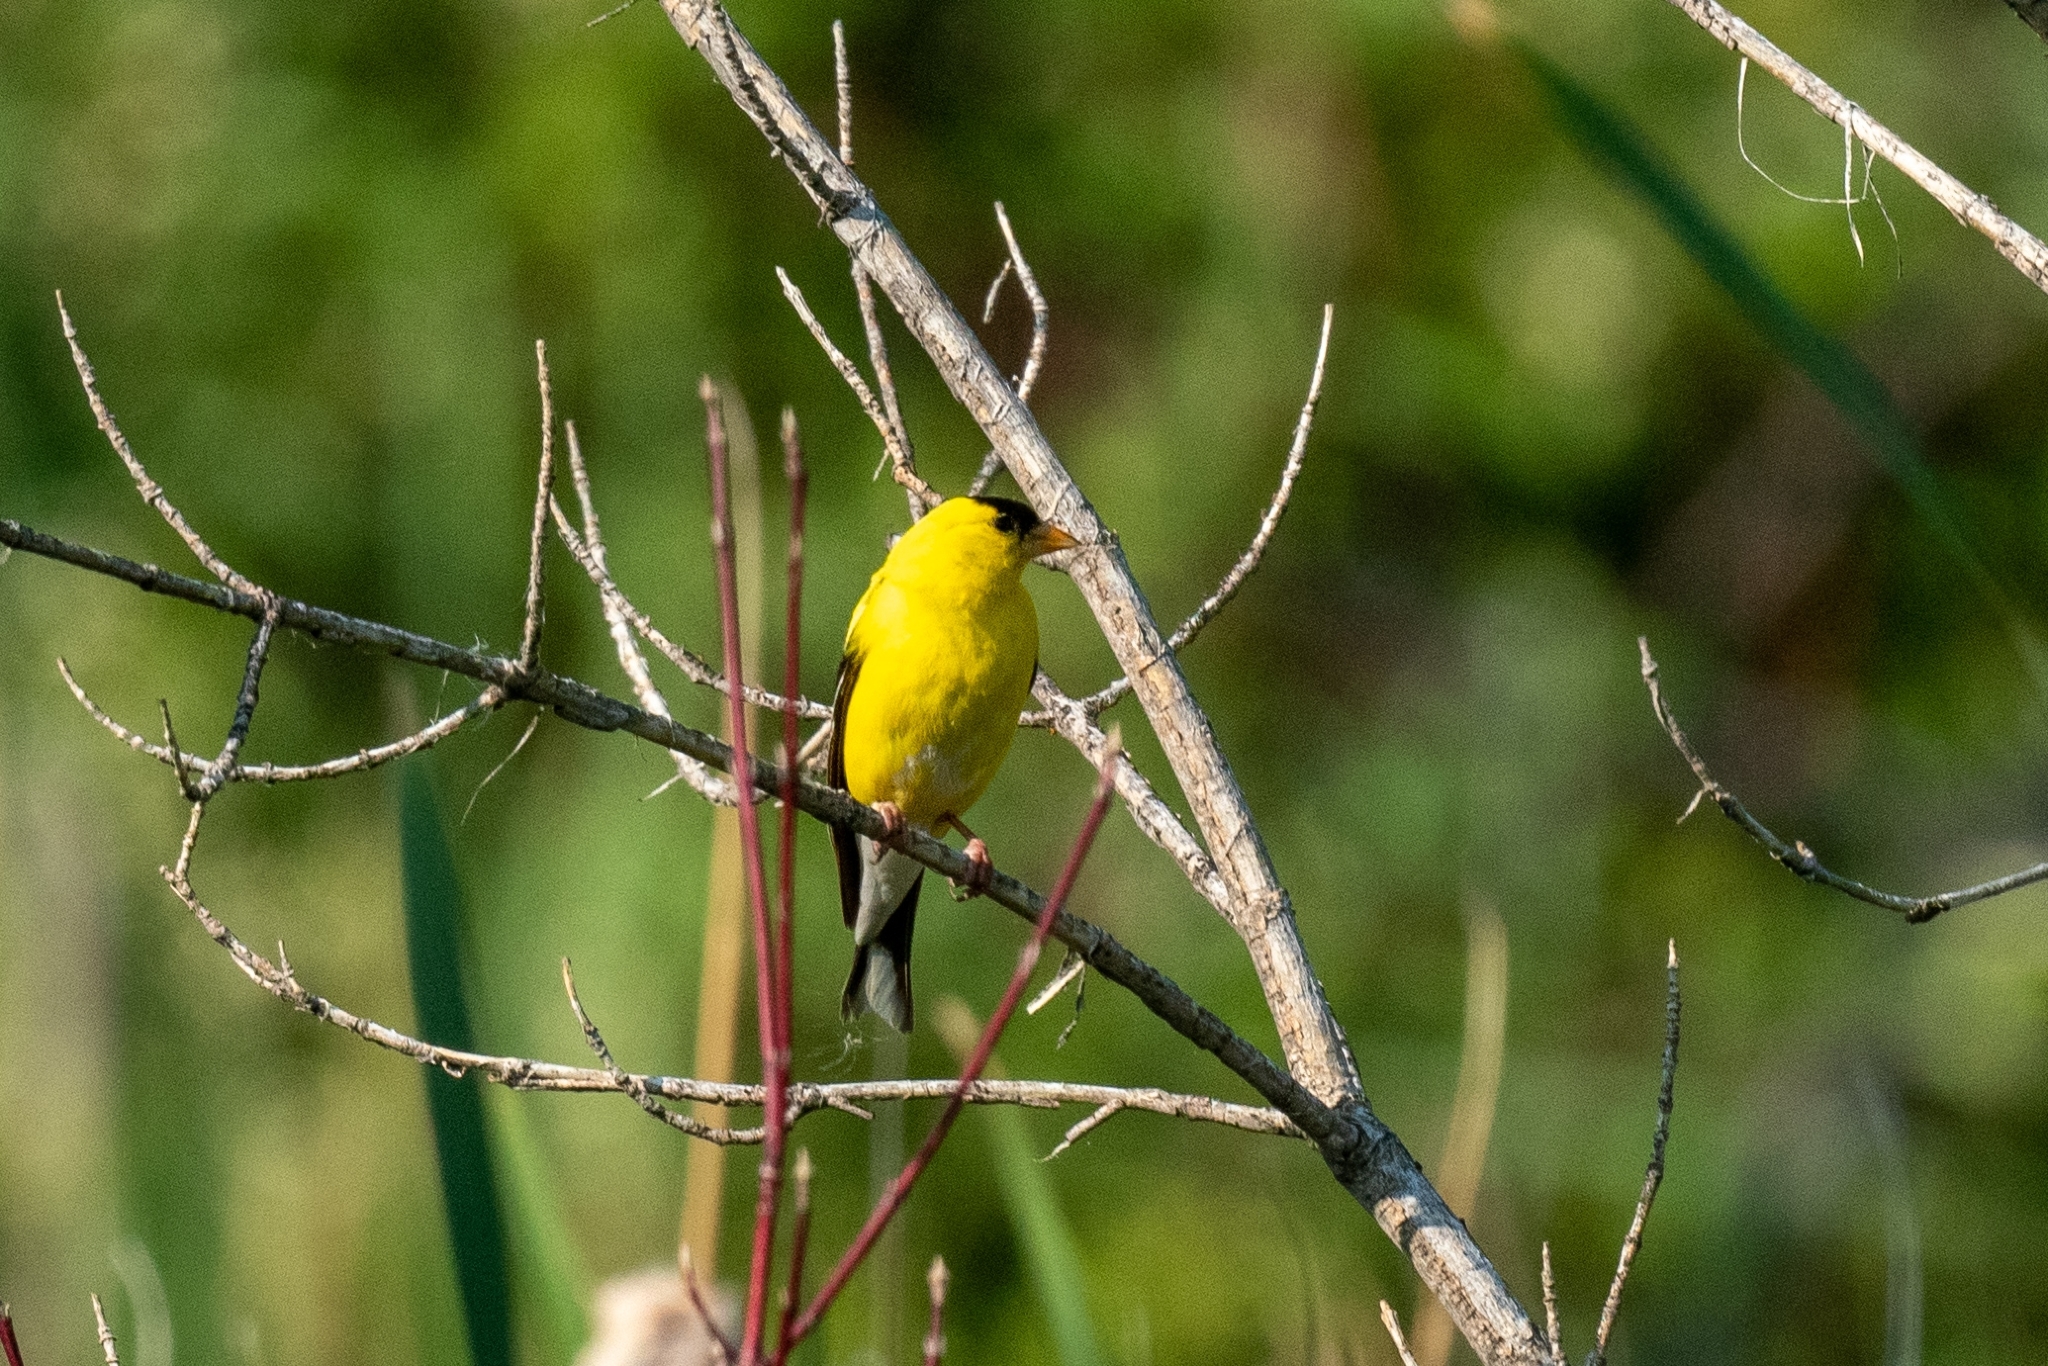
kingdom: Animalia
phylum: Chordata
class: Aves
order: Passeriformes
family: Fringillidae
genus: Spinus
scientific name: Spinus tristis
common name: American goldfinch
